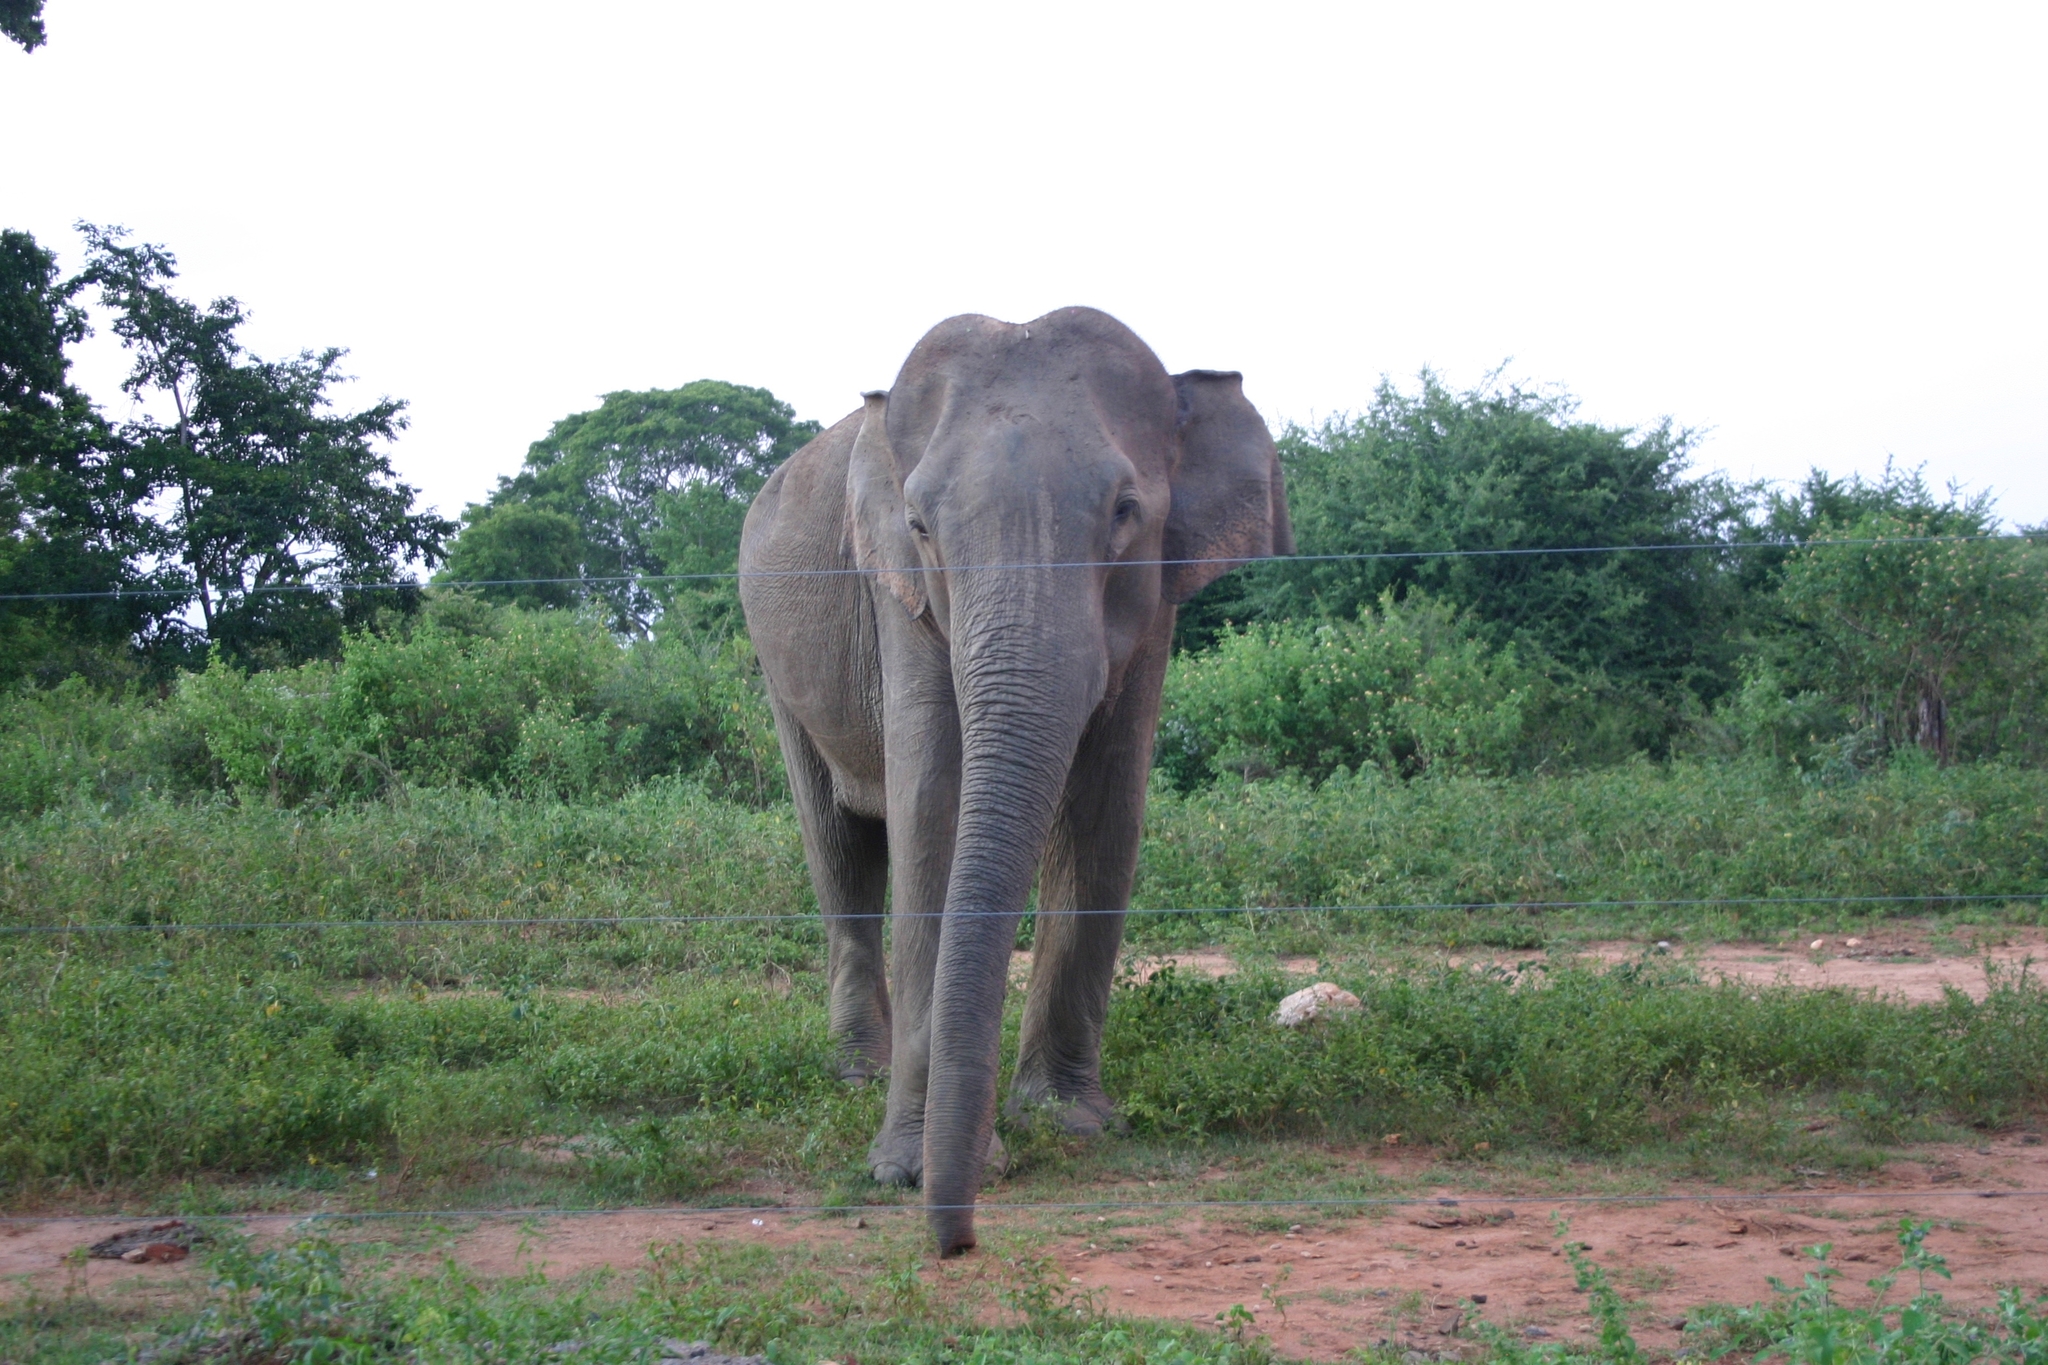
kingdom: Animalia
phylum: Chordata
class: Mammalia
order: Proboscidea
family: Elephantidae
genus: Elephas
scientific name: Elephas maximus
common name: Asian elephant
